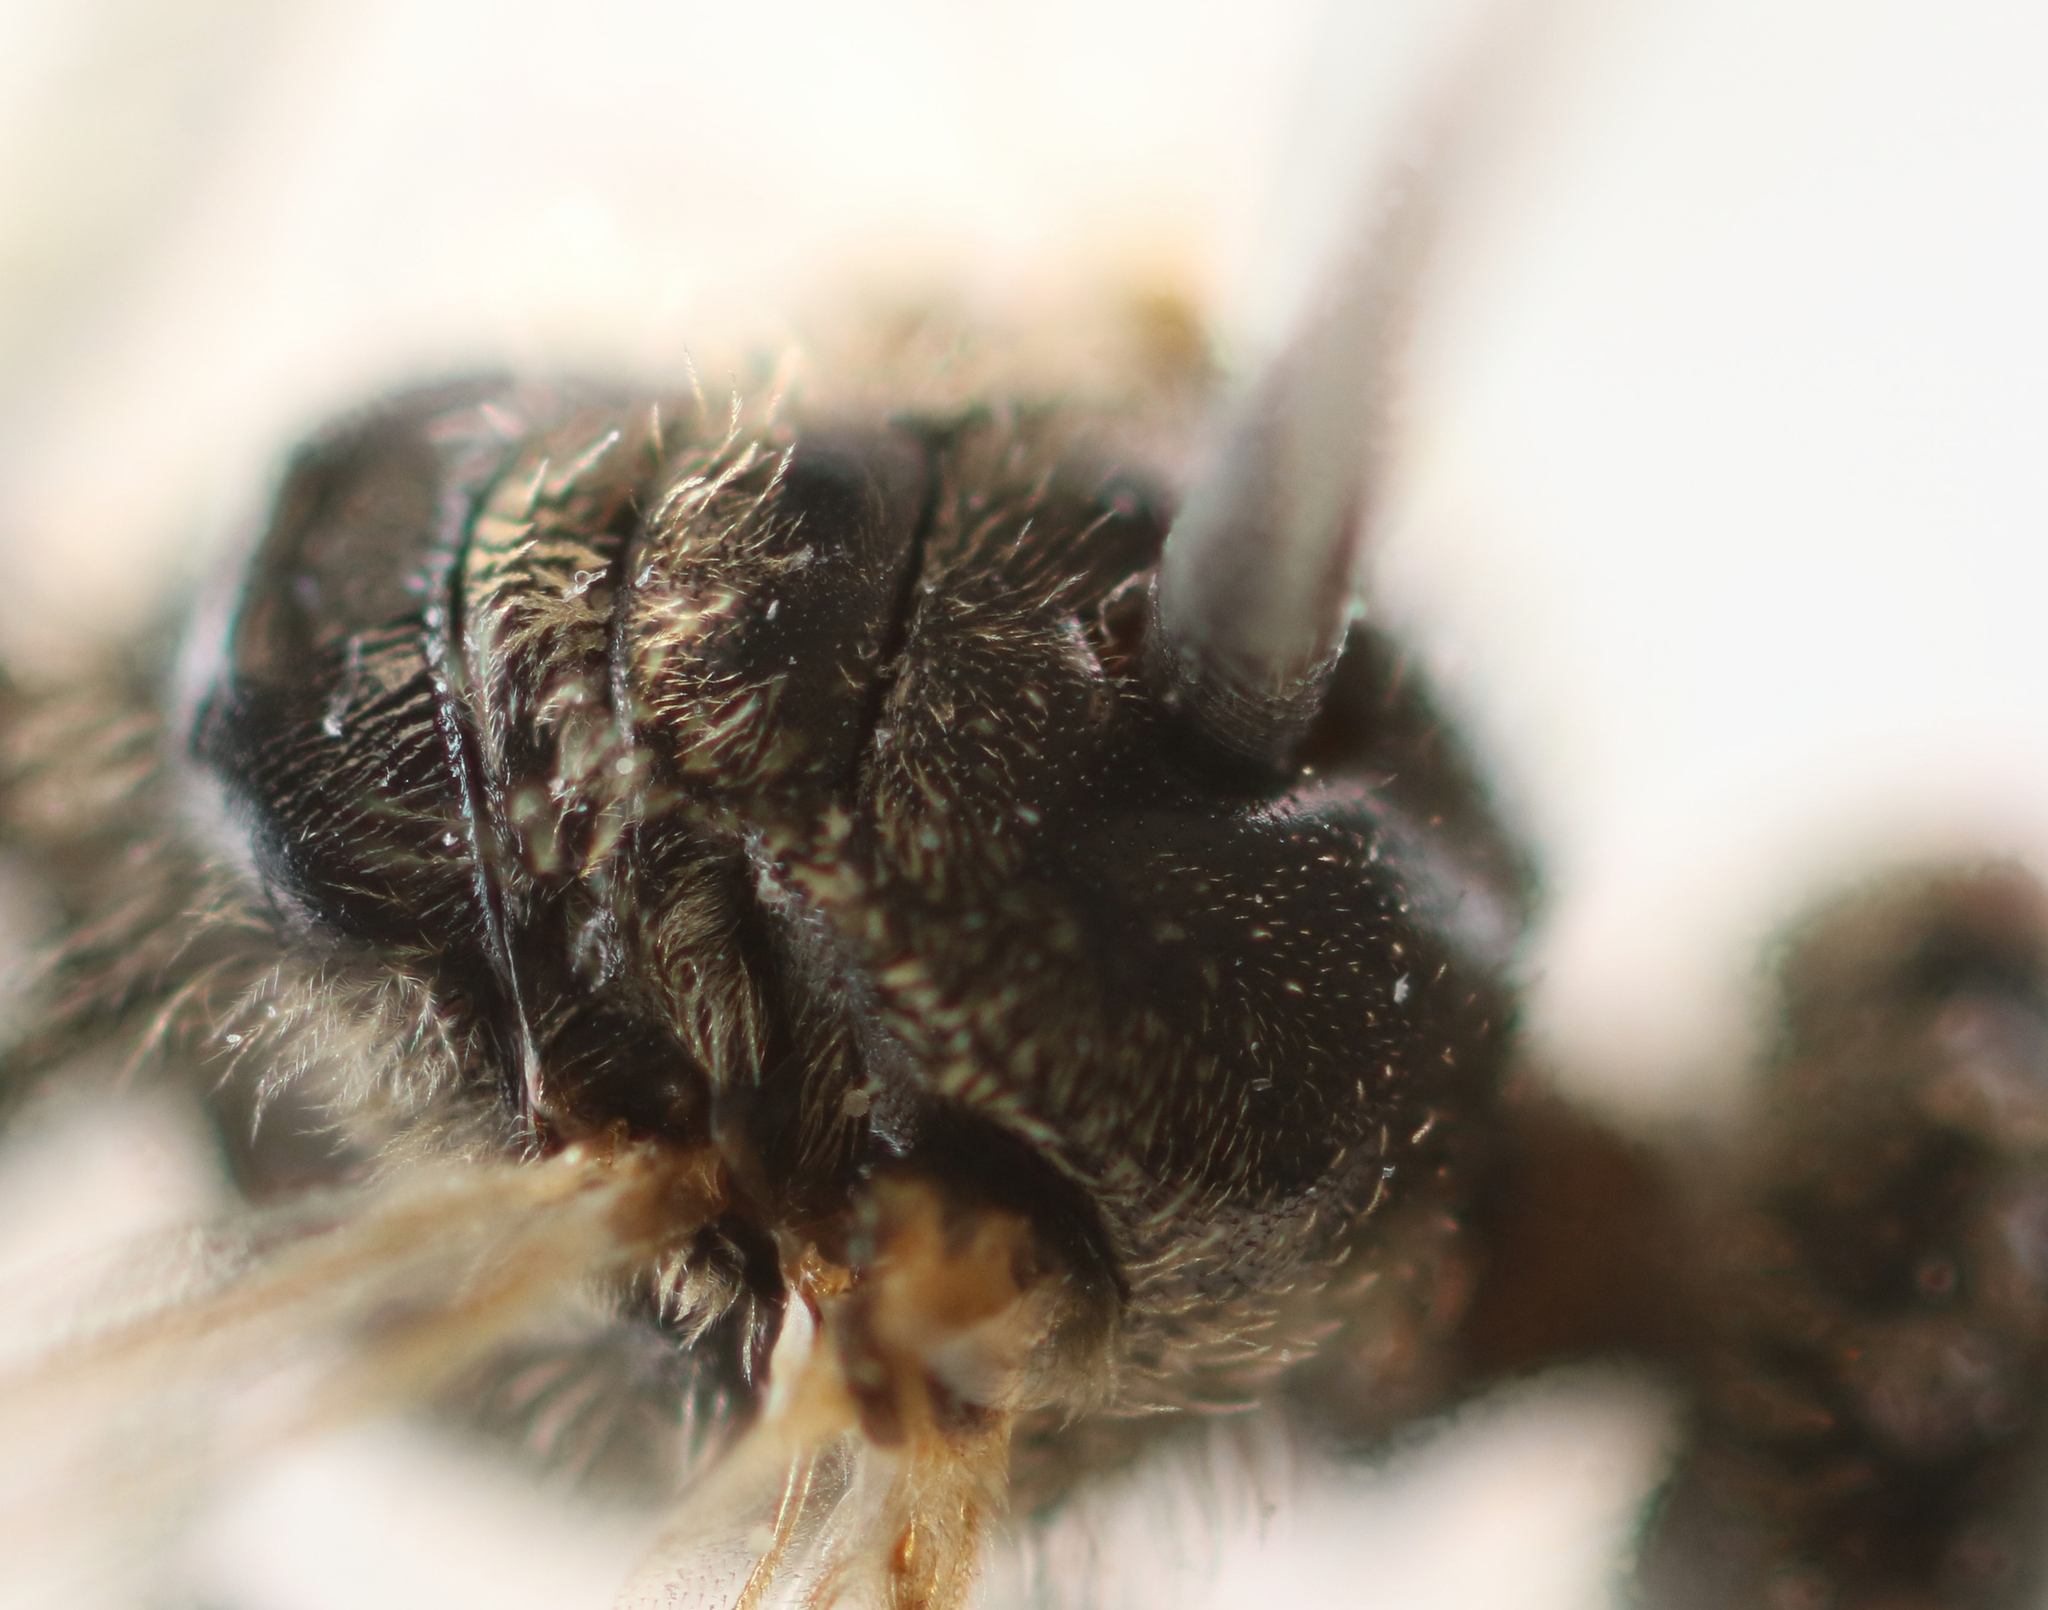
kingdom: Animalia
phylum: Arthropoda
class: Insecta
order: Hymenoptera
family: Halictidae
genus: Lasioglossum
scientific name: Lasioglossum limbellum
